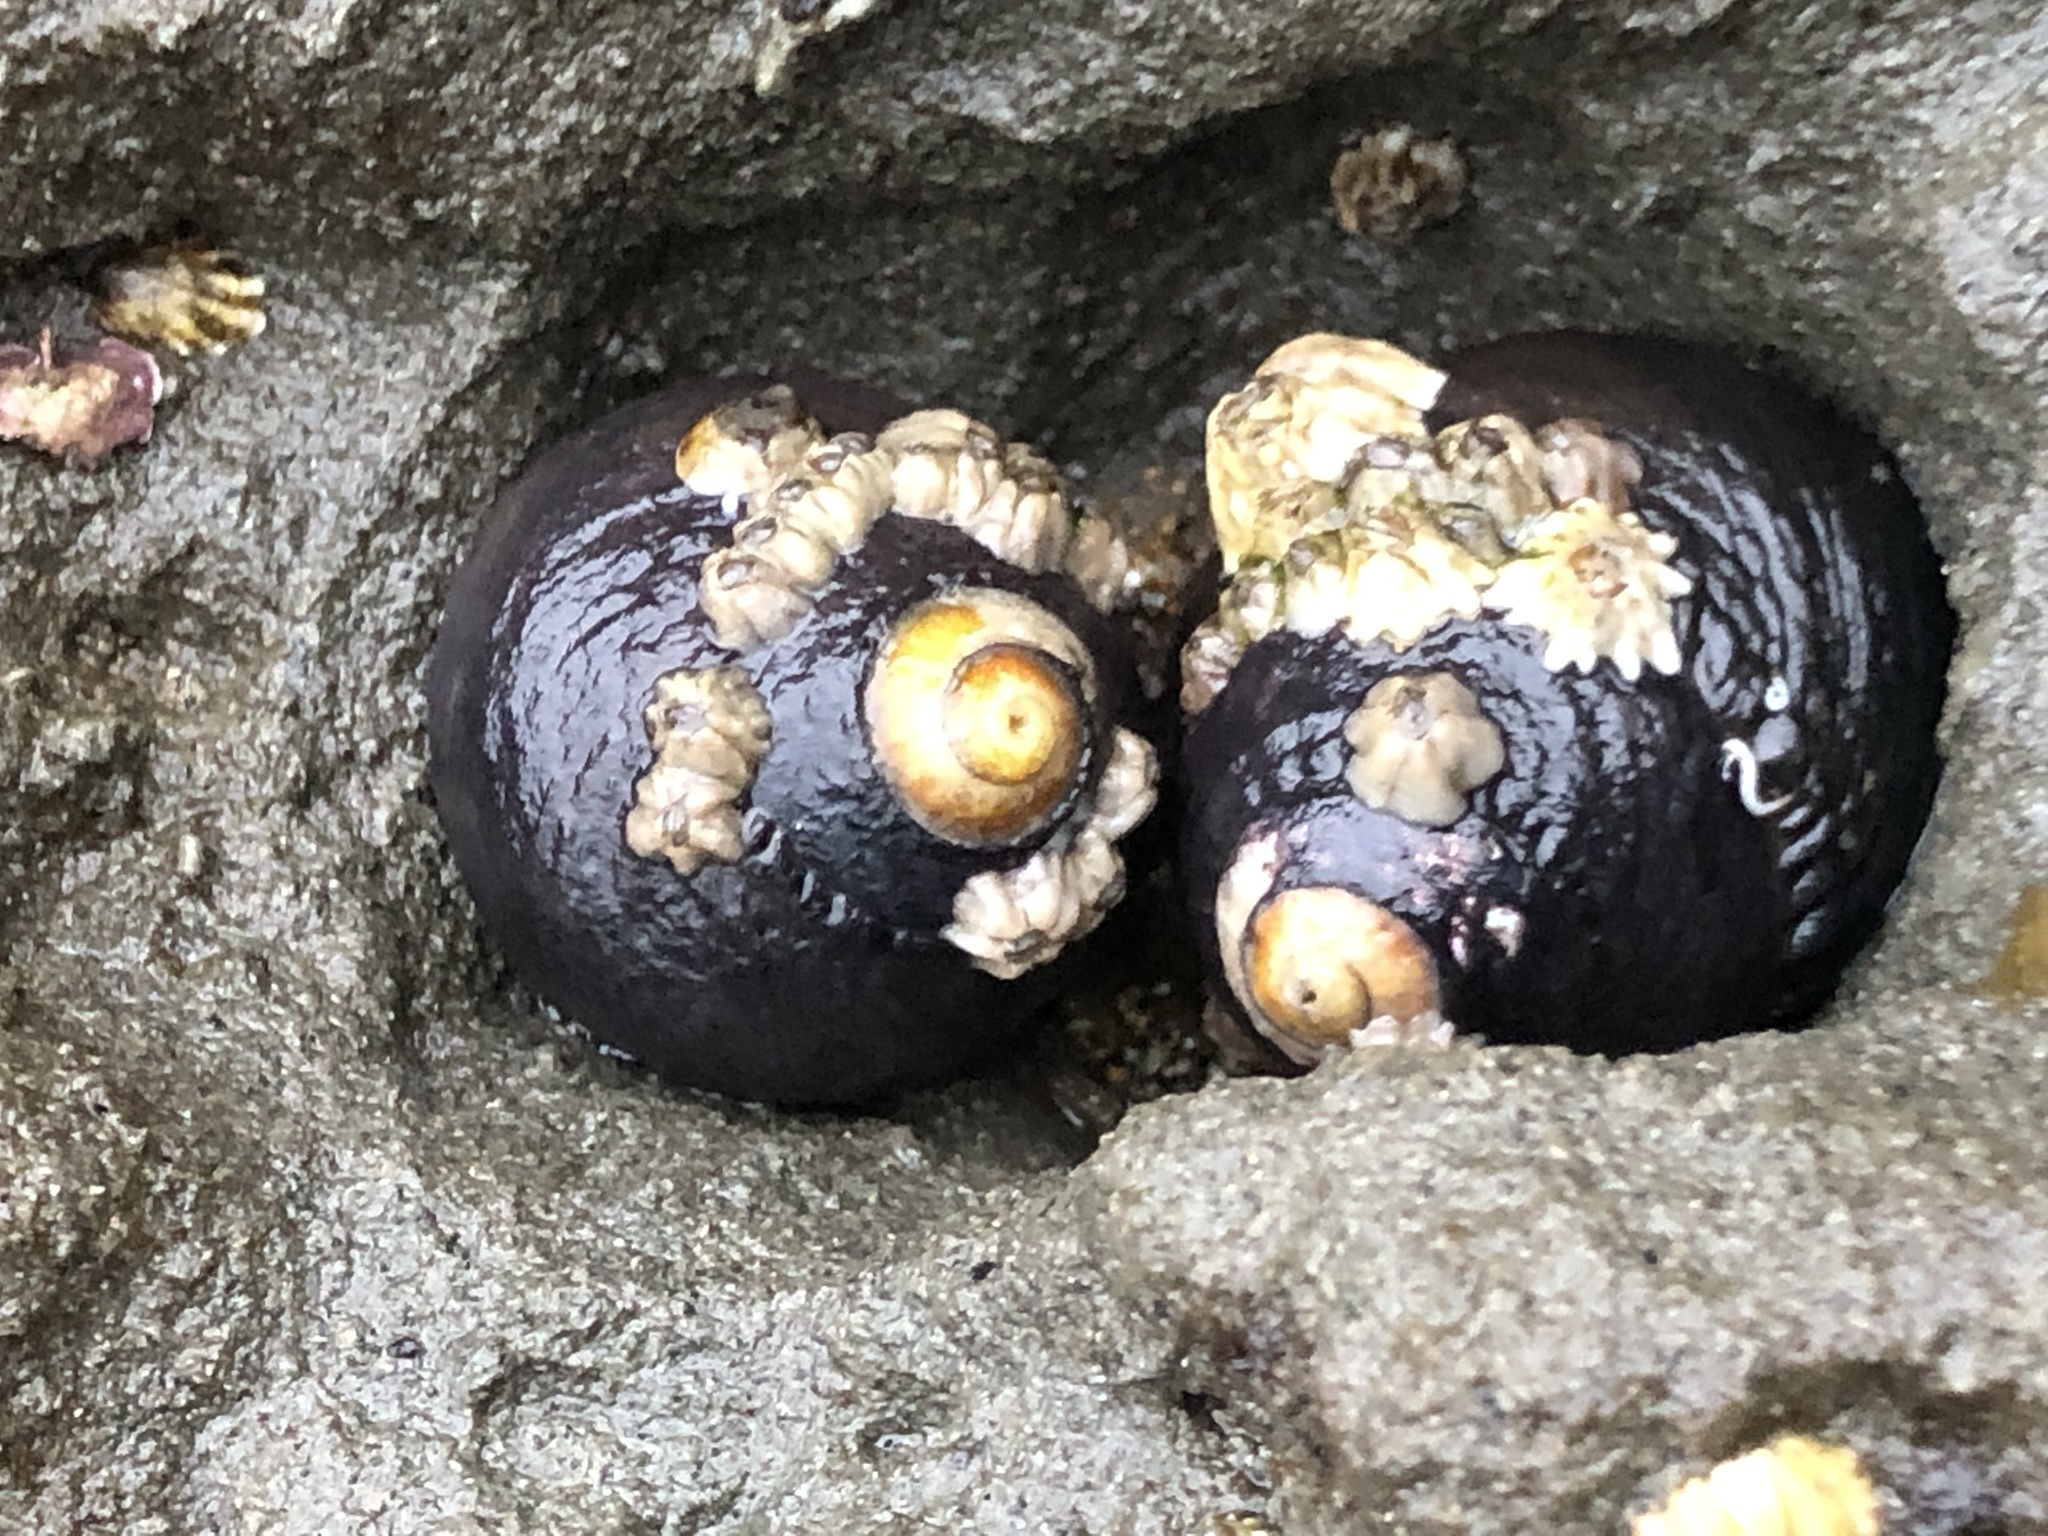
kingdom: Animalia
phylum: Mollusca
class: Gastropoda
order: Trochida
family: Tegulidae
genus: Tegula
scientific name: Tegula funebralis
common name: Black tegula
